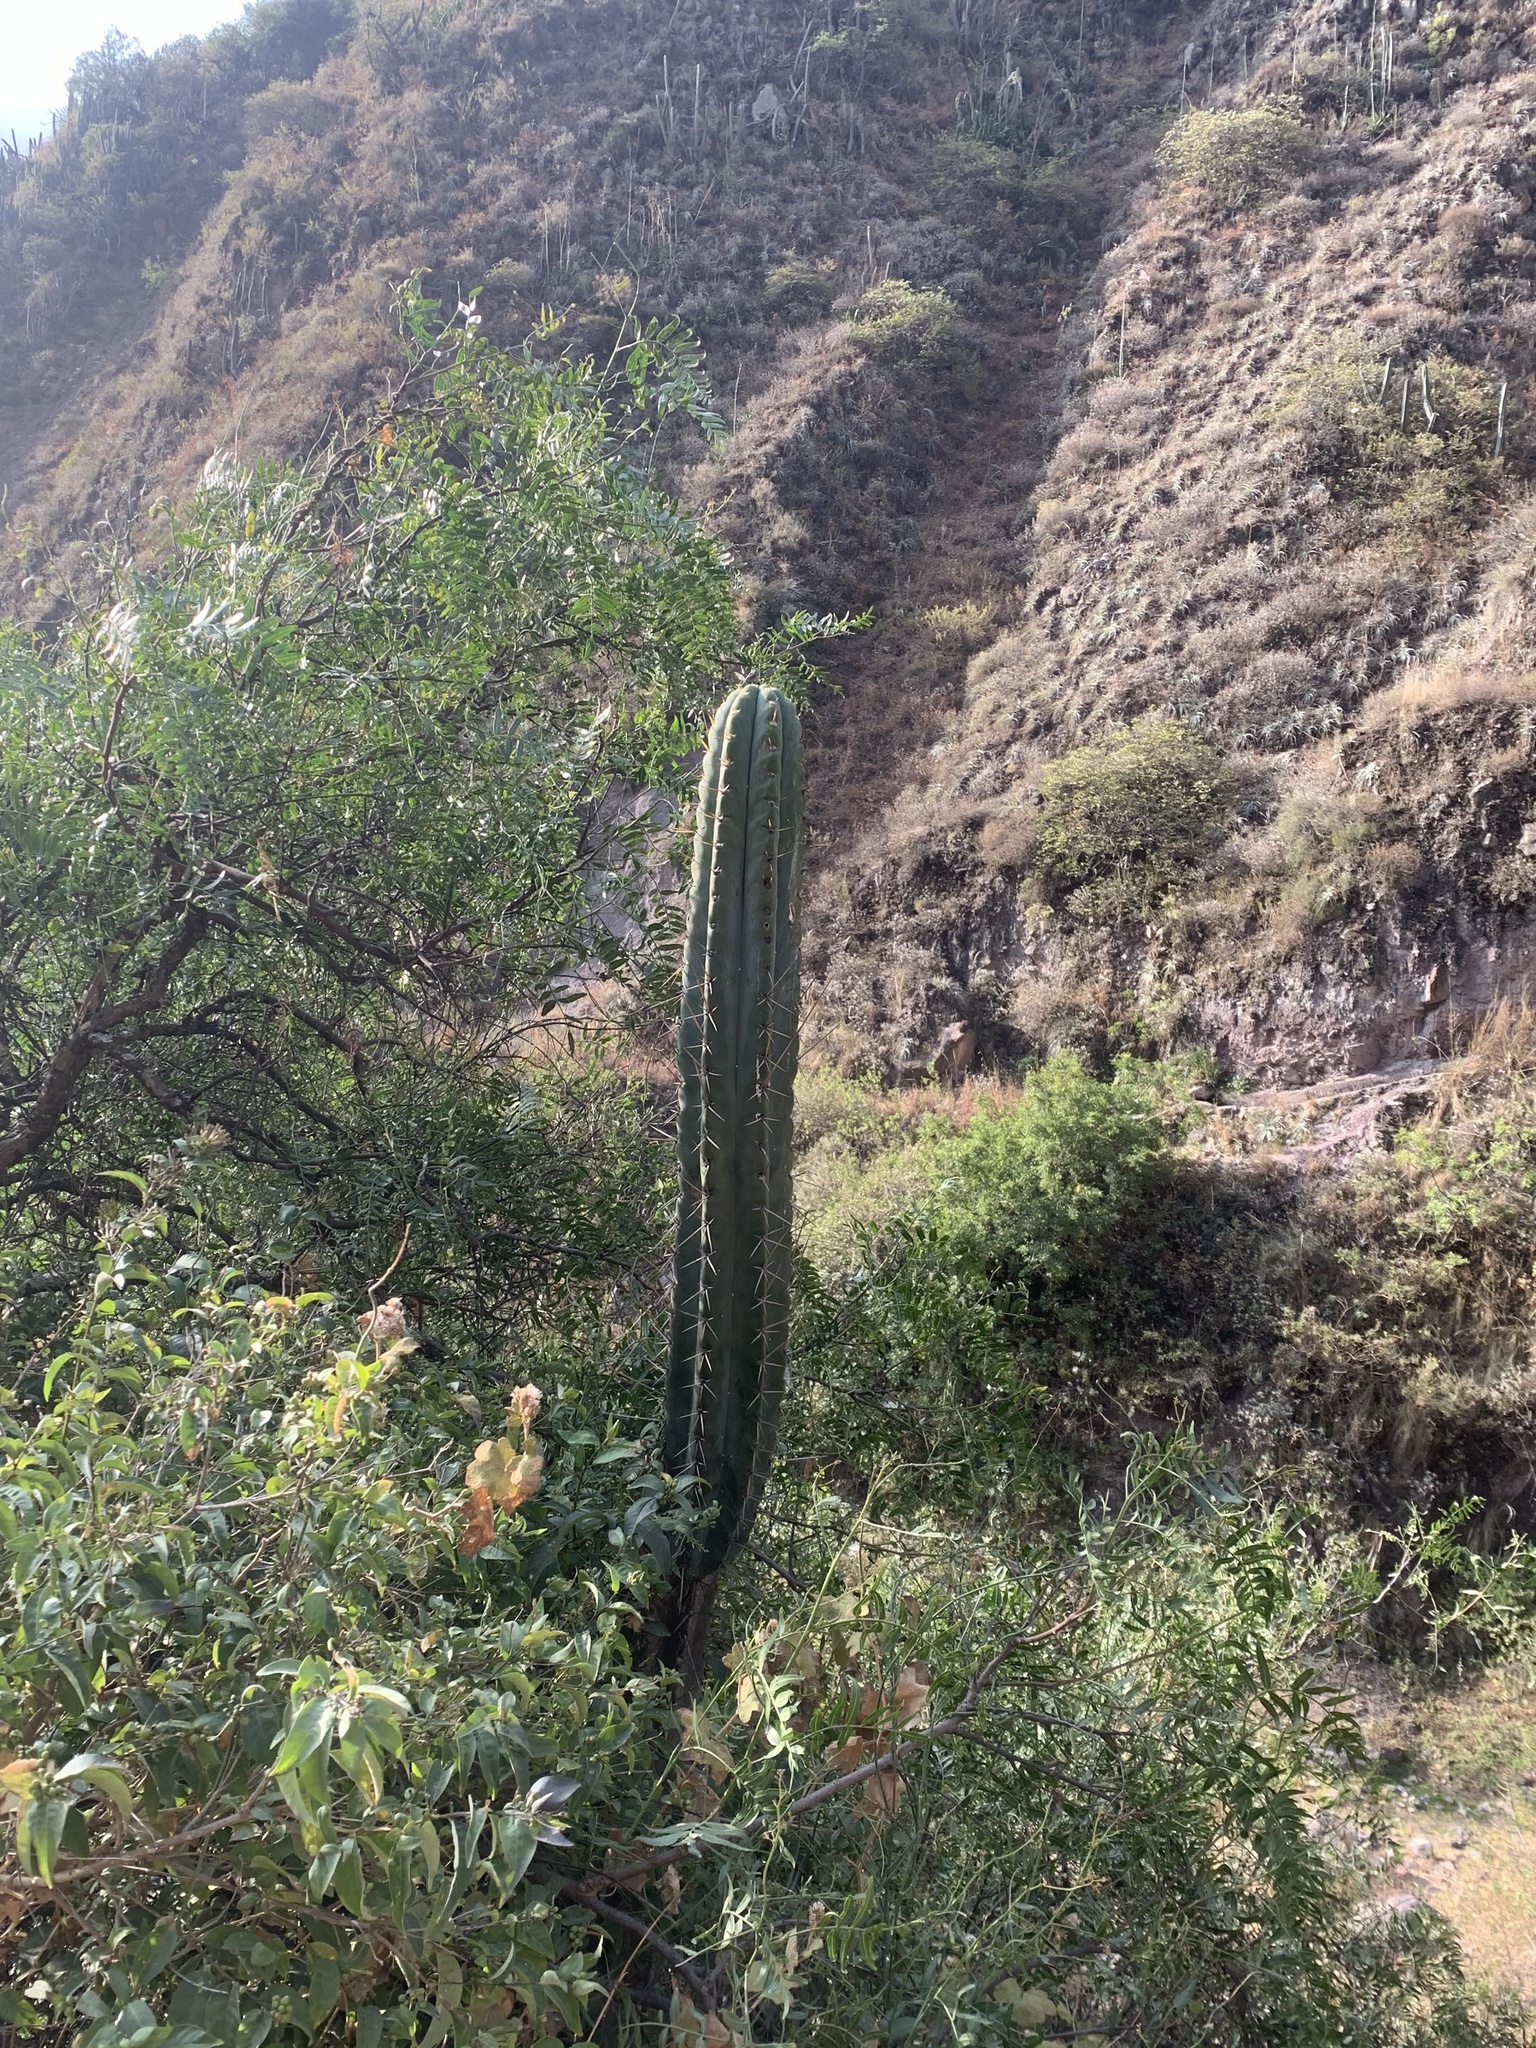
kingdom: Plantae
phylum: Tracheophyta
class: Magnoliopsida
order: Caryophyllales
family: Cactaceae
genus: Trichocereus
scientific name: Trichocereus macrogonus
